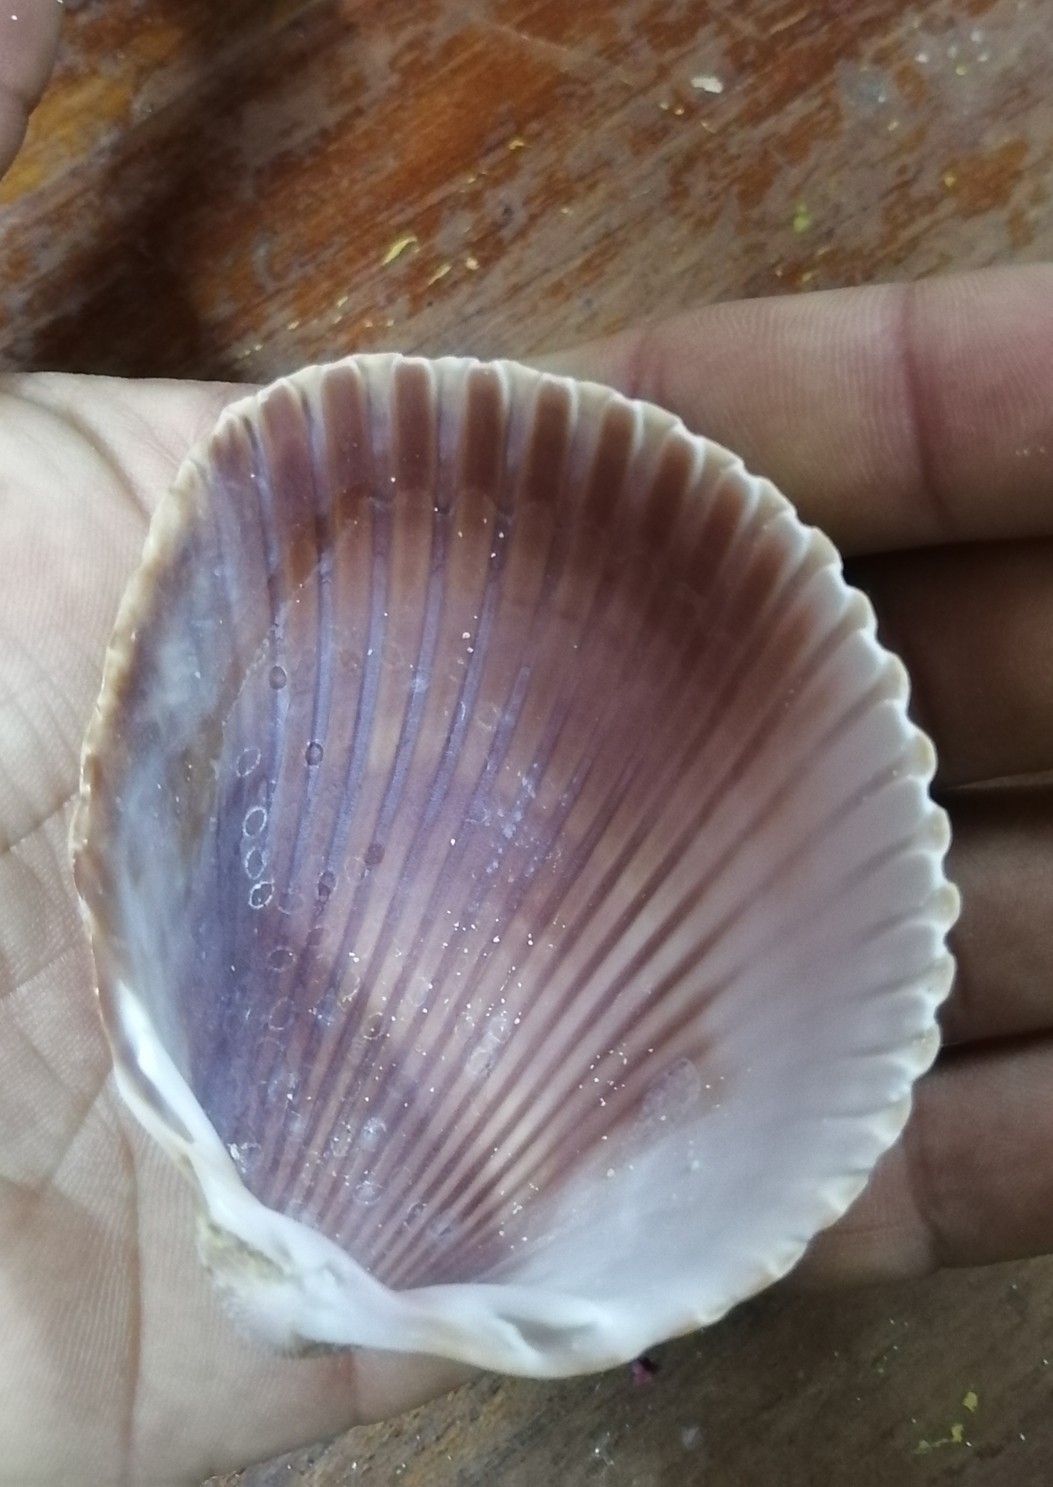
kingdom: Animalia
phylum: Mollusca
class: Bivalvia
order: Cardiida
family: Cardiidae
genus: Dinocardium
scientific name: Dinocardium robustum
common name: Atlantic giant cockle
